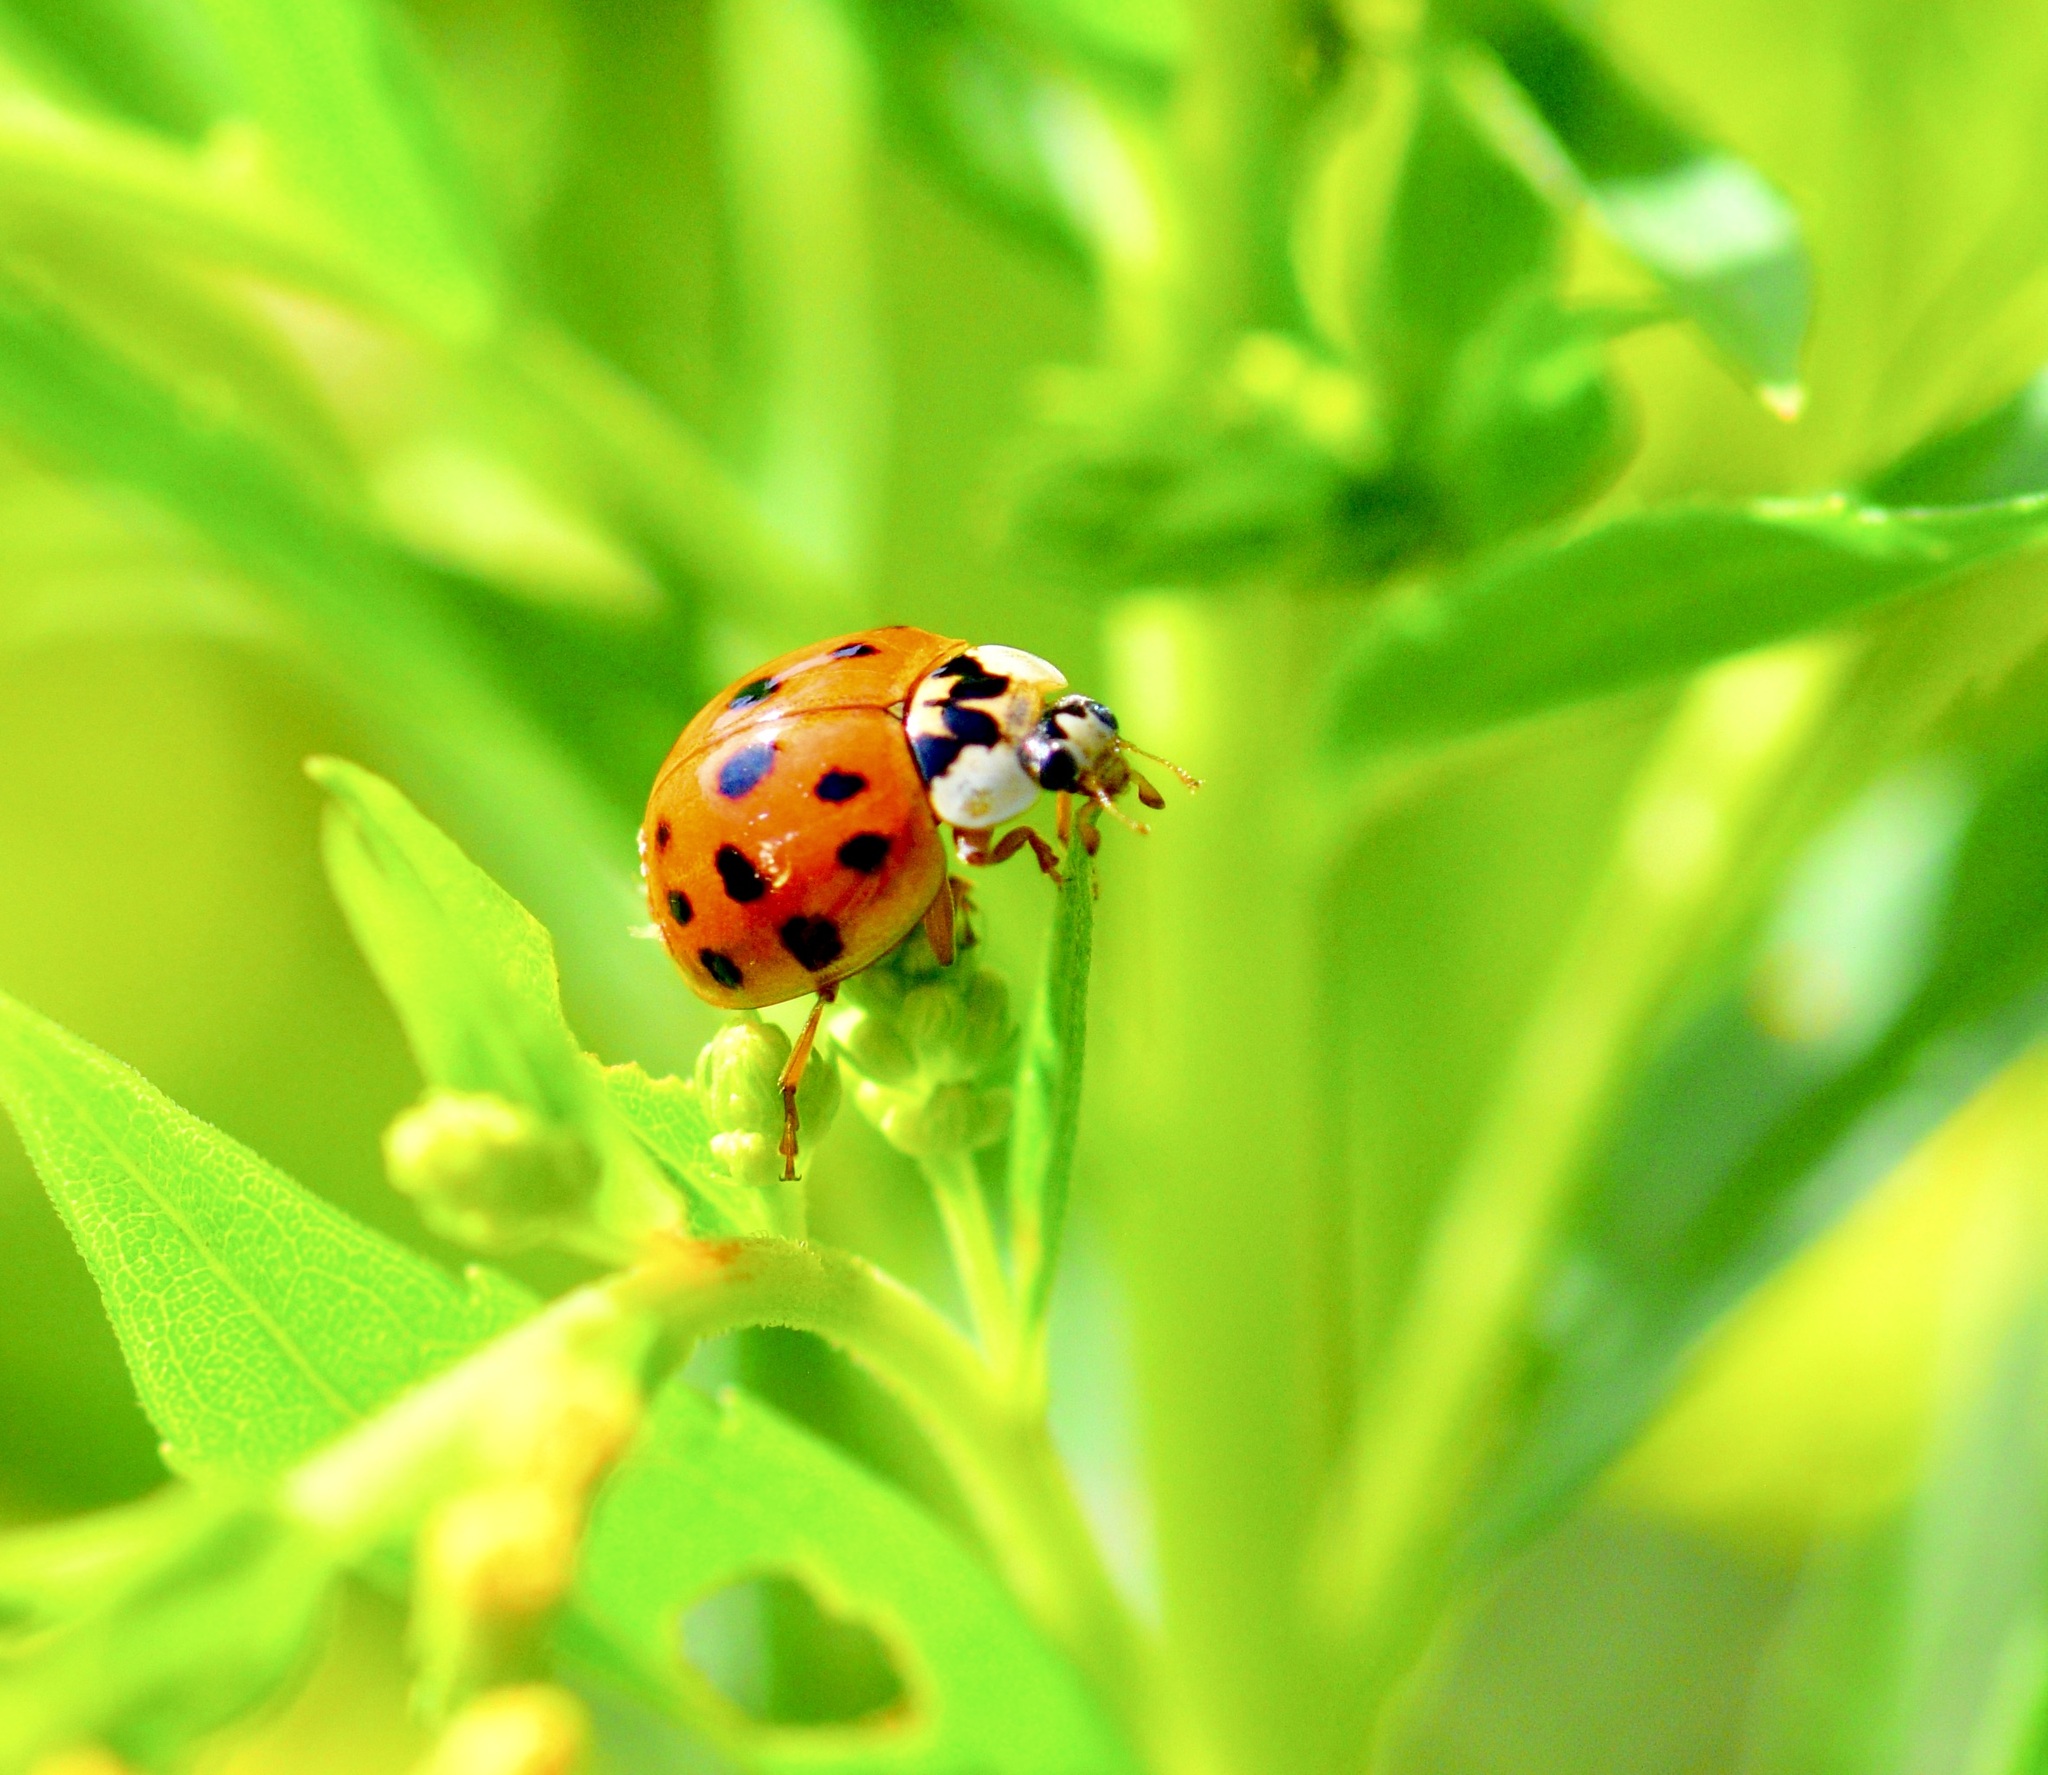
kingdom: Animalia
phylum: Arthropoda
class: Insecta
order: Coleoptera
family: Coccinellidae
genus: Harmonia
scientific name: Harmonia axyridis
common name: Harlequin ladybird
